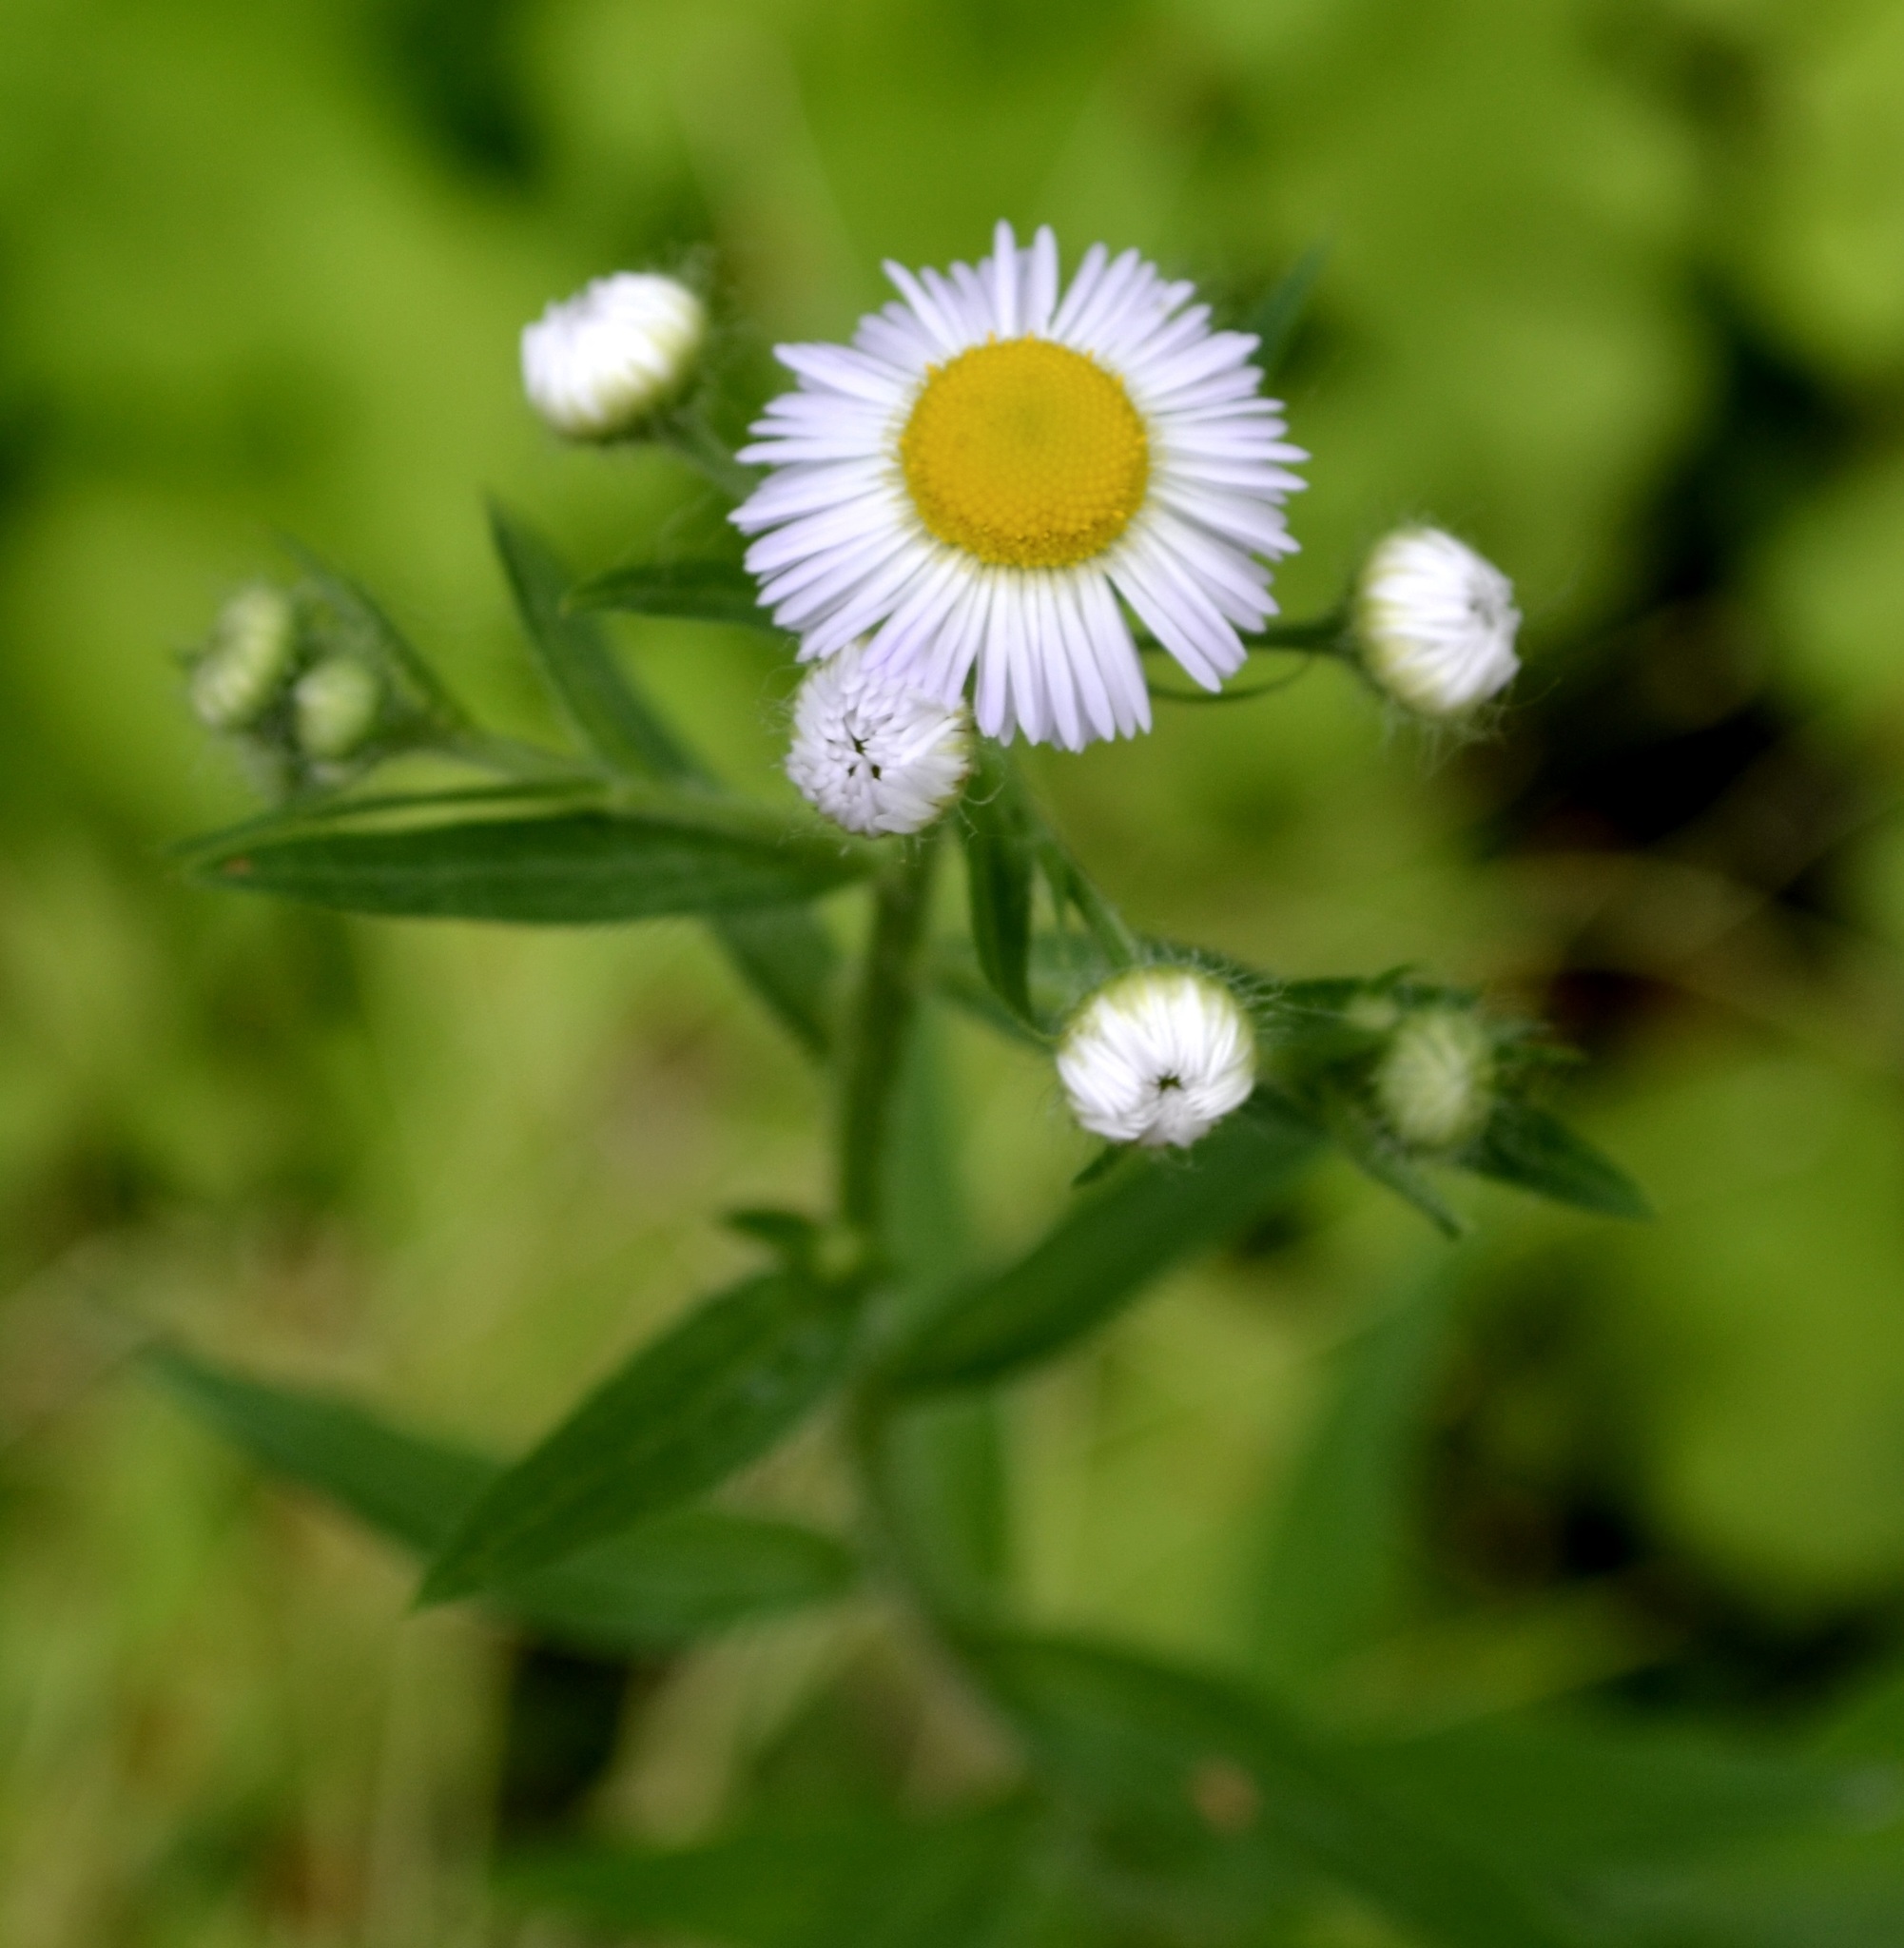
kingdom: Plantae
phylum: Tracheophyta
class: Magnoliopsida
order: Asterales
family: Asteraceae
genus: Erigeron
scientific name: Erigeron annuus
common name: Tall fleabane
